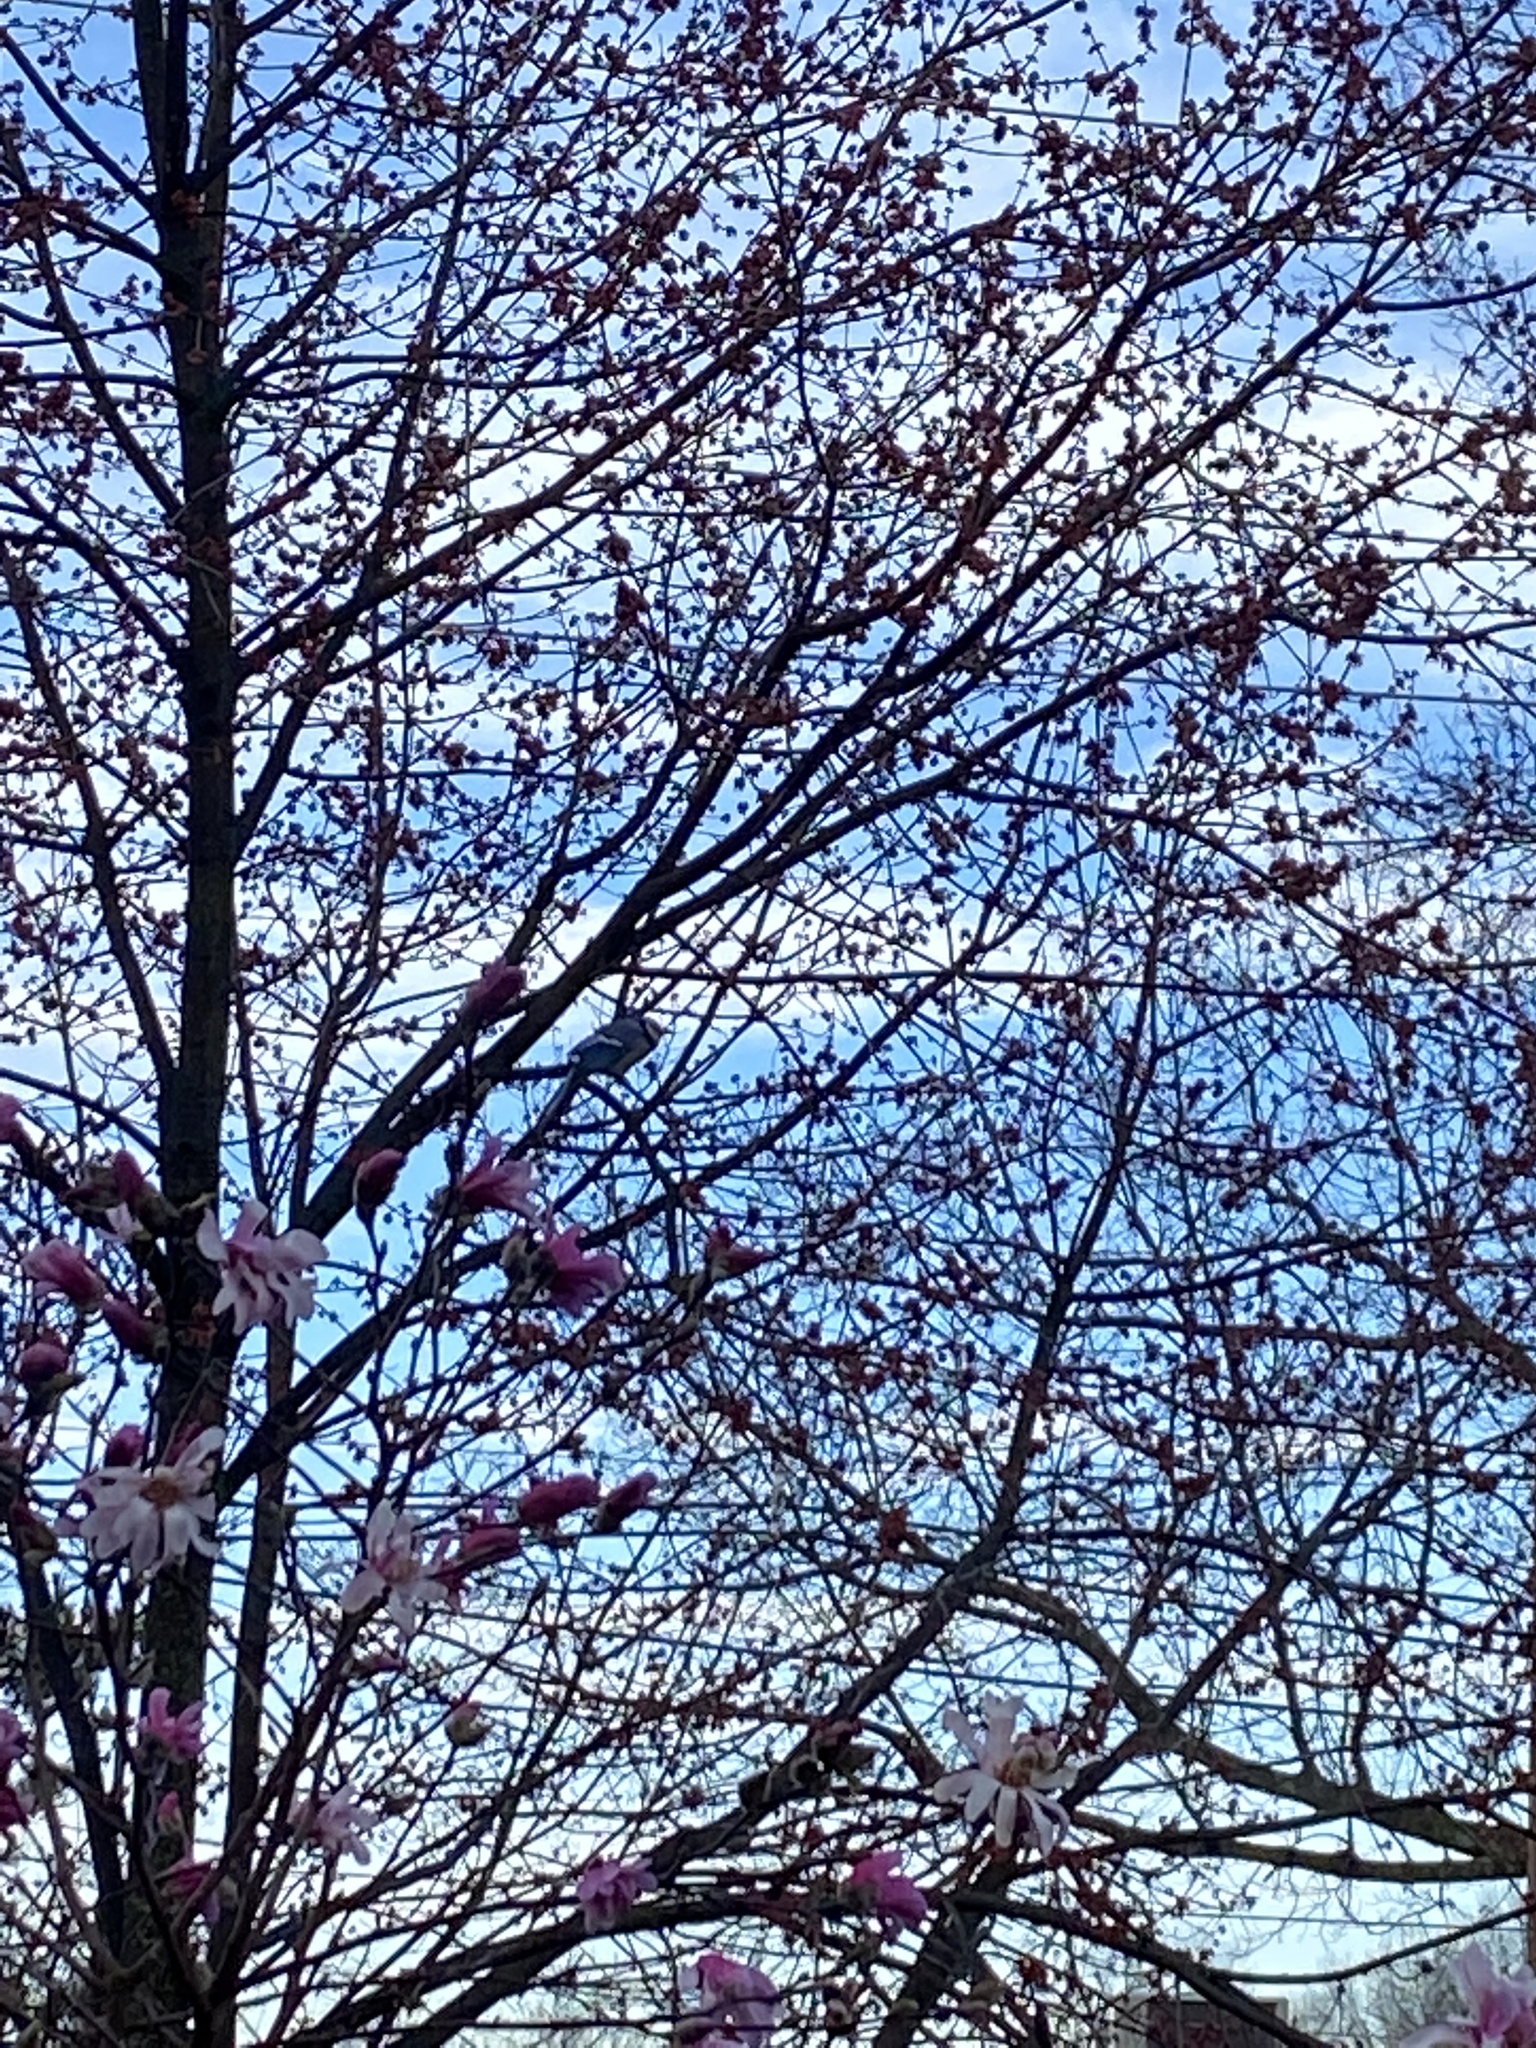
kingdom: Animalia
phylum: Chordata
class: Aves
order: Passeriformes
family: Corvidae
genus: Cyanocitta
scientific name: Cyanocitta cristata
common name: Blue jay
